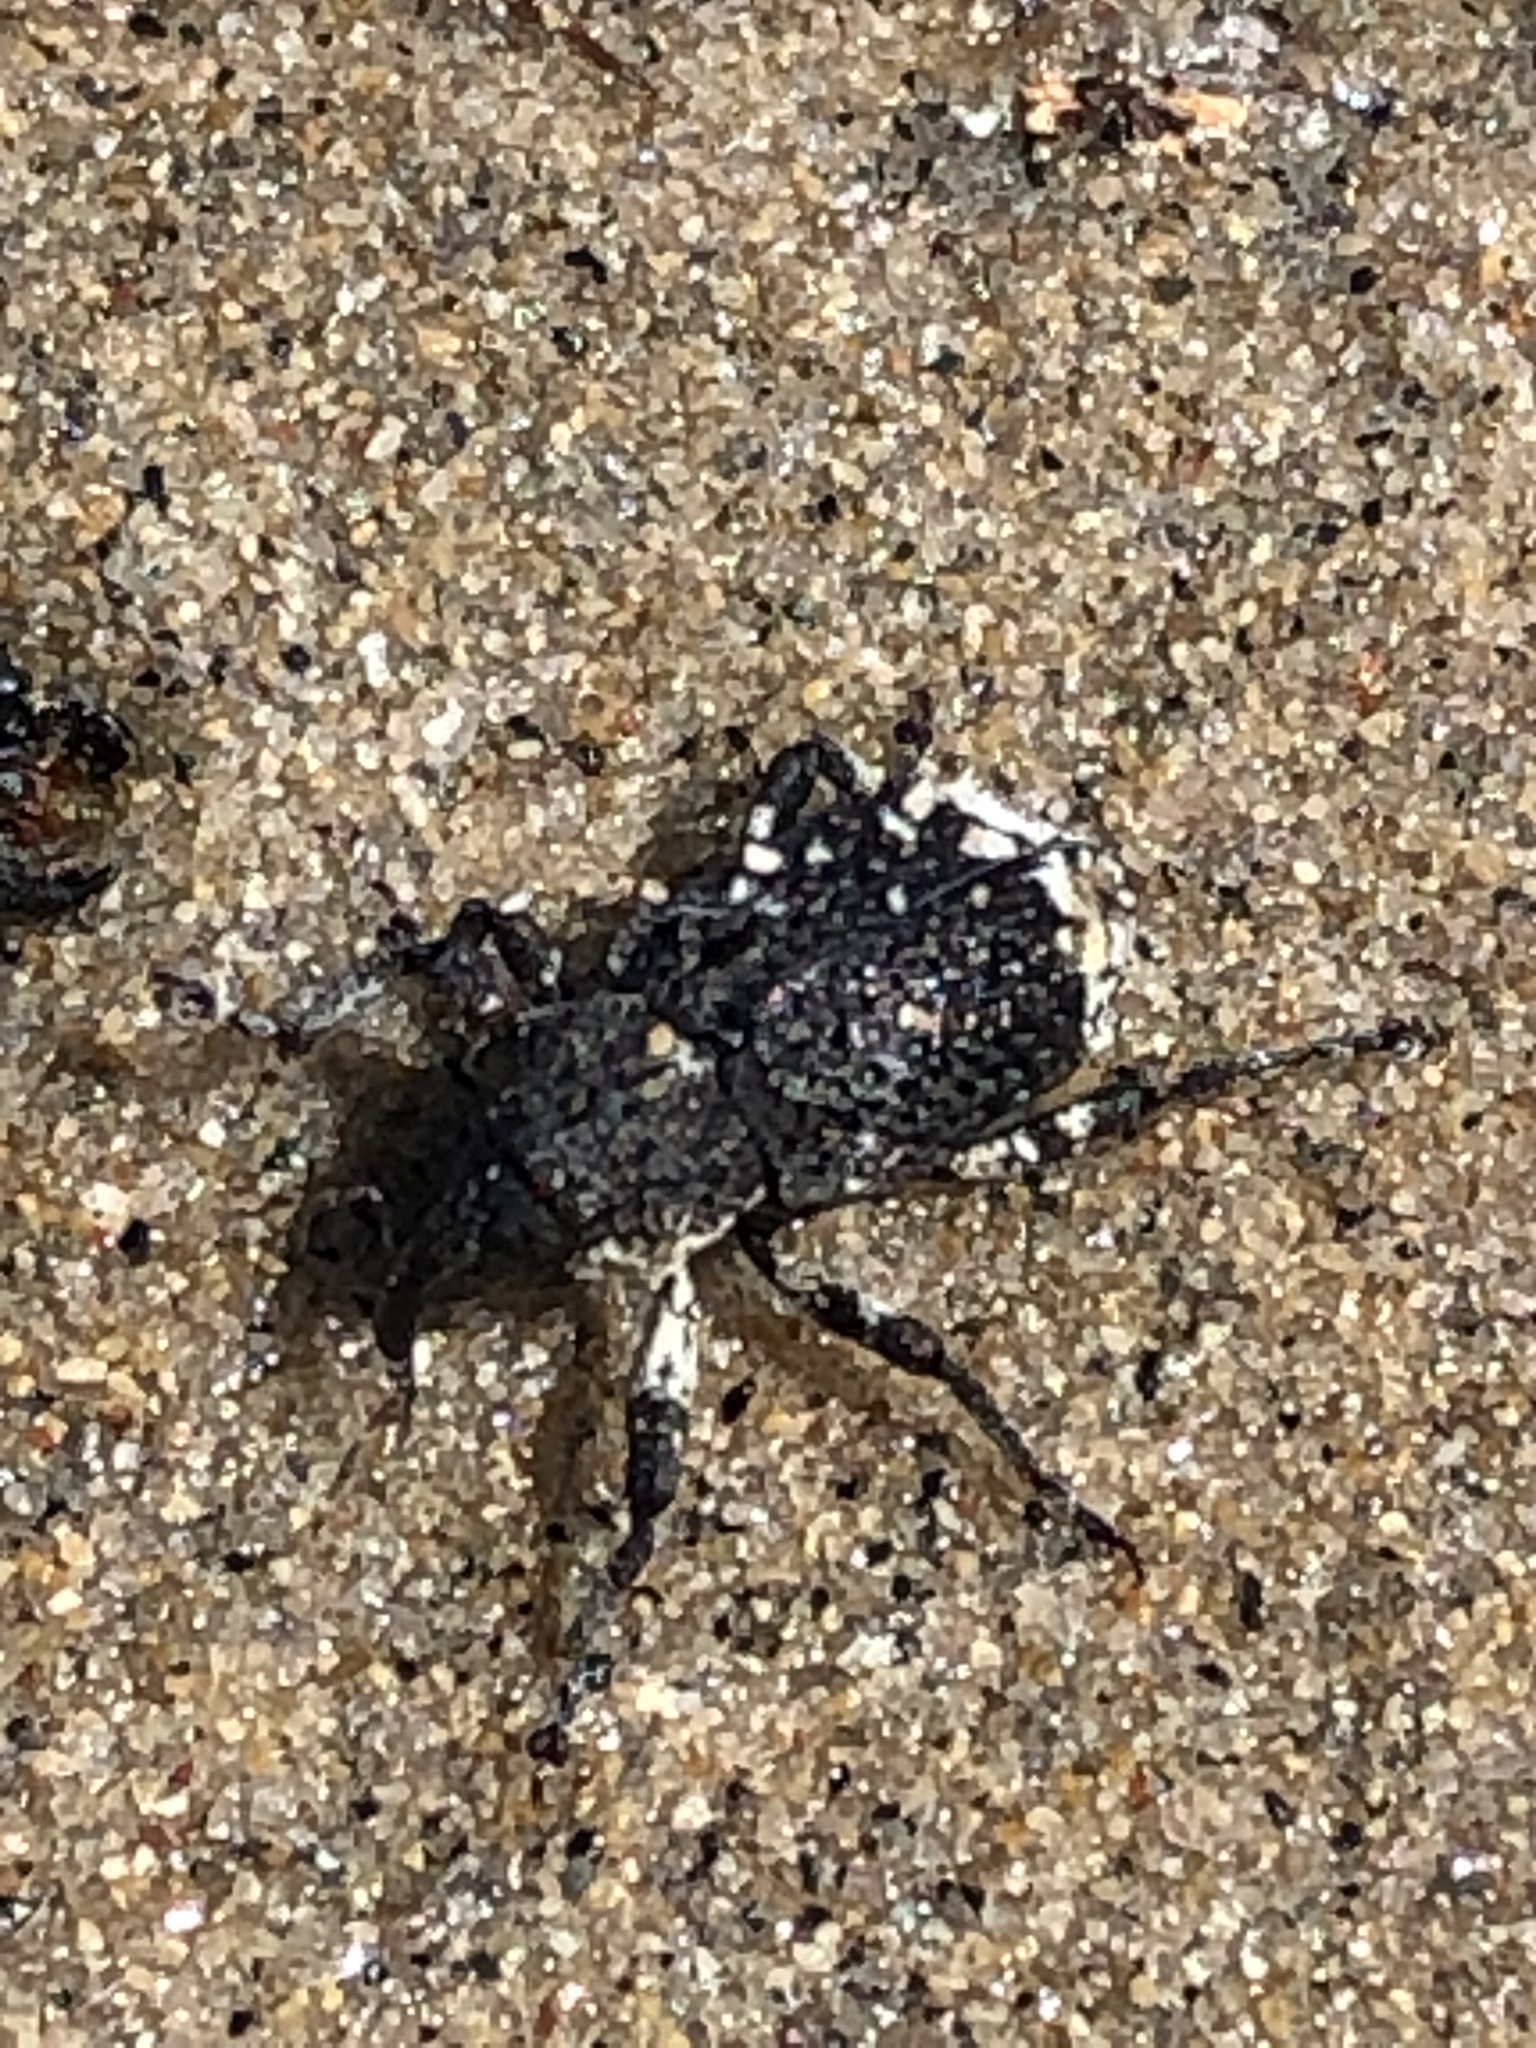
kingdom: Animalia
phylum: Arthropoda
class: Insecta
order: Coleoptera
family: Curculionidae
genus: Cryptorhynchus
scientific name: Cryptorhynchus lapathi
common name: Weevil
